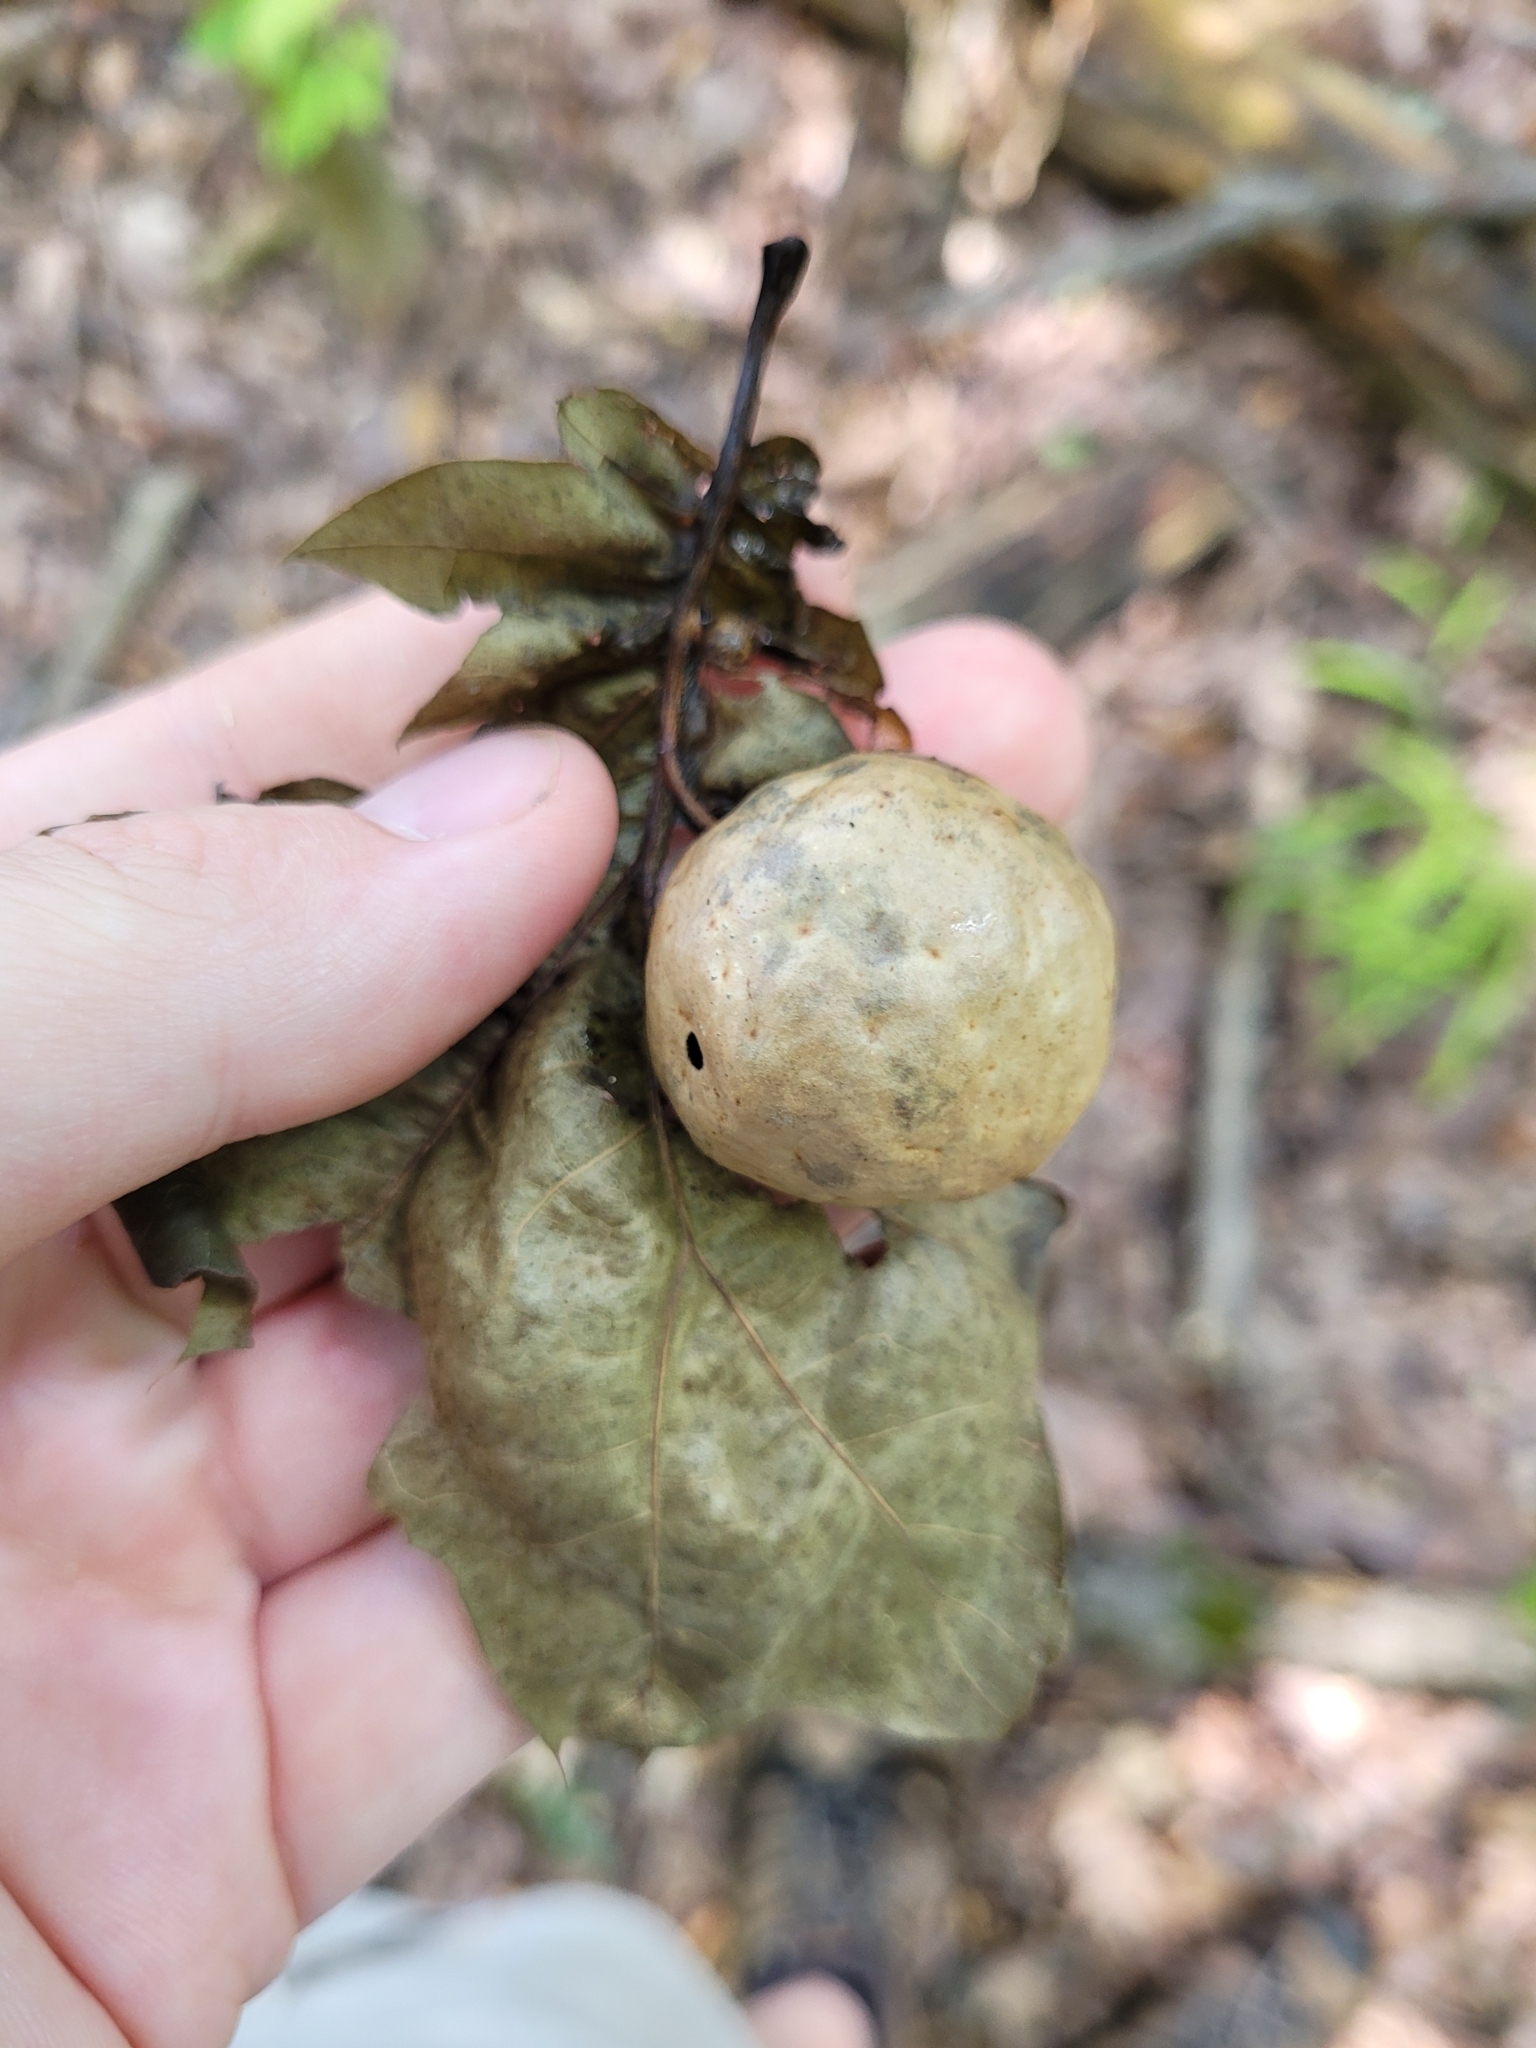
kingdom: Animalia
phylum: Arthropoda
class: Insecta
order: Hymenoptera
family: Cynipidae
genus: Amphibolips
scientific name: Amphibolips
